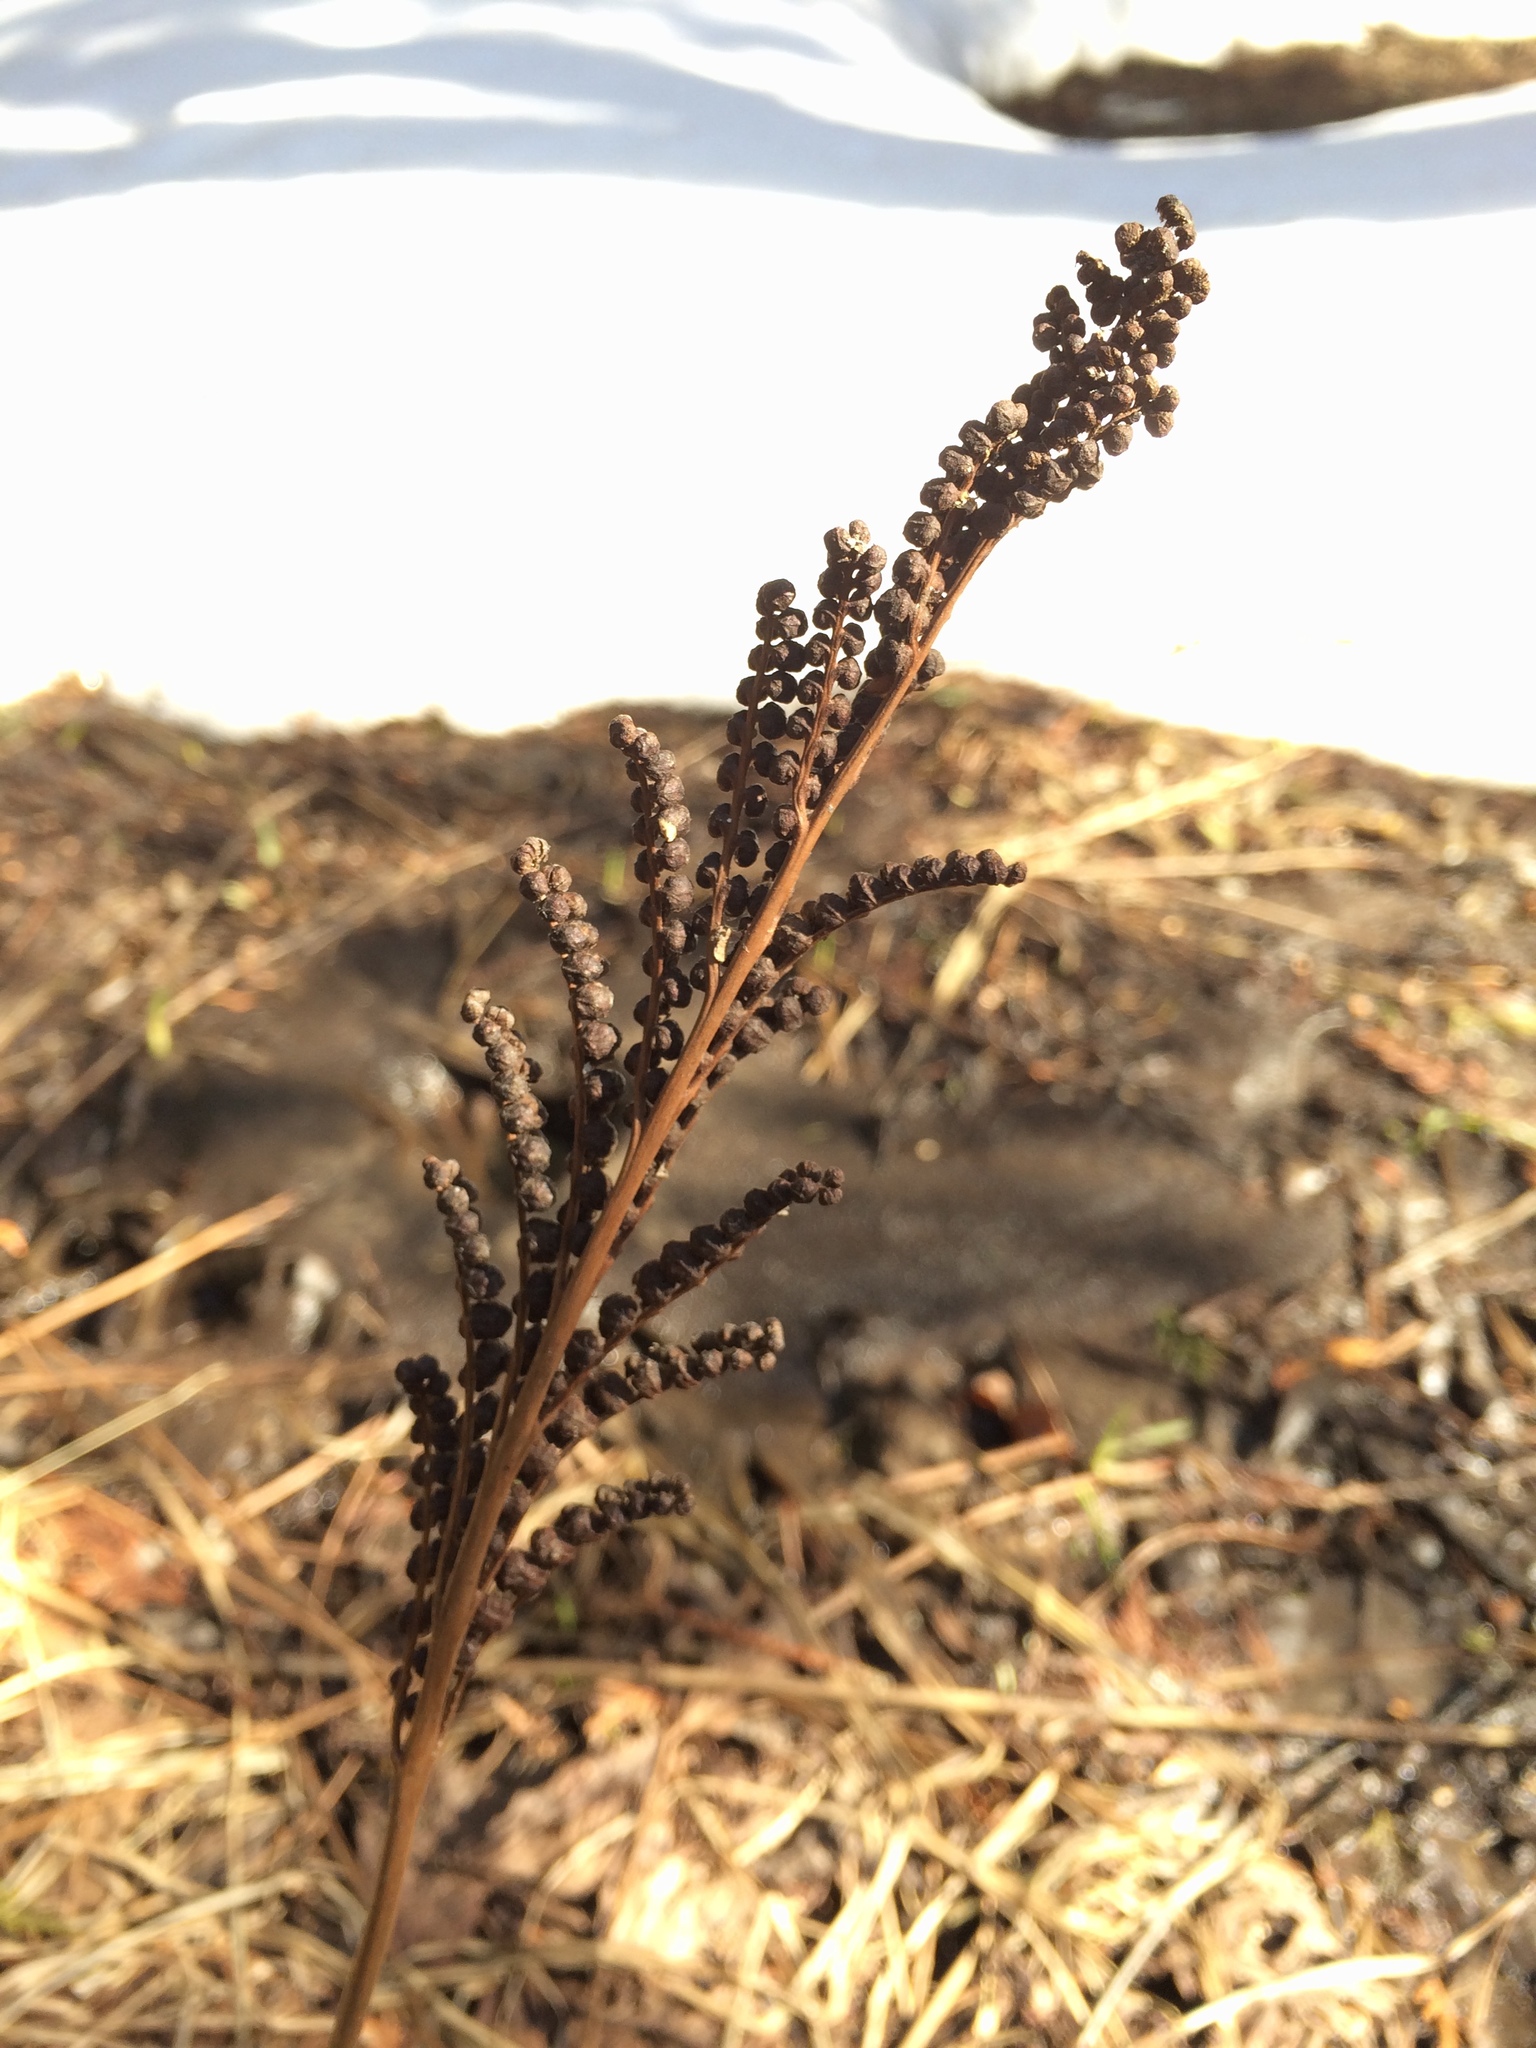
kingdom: Plantae
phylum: Tracheophyta
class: Polypodiopsida
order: Polypodiales
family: Onocleaceae
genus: Onoclea
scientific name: Onoclea sensibilis
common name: Sensitive fern
